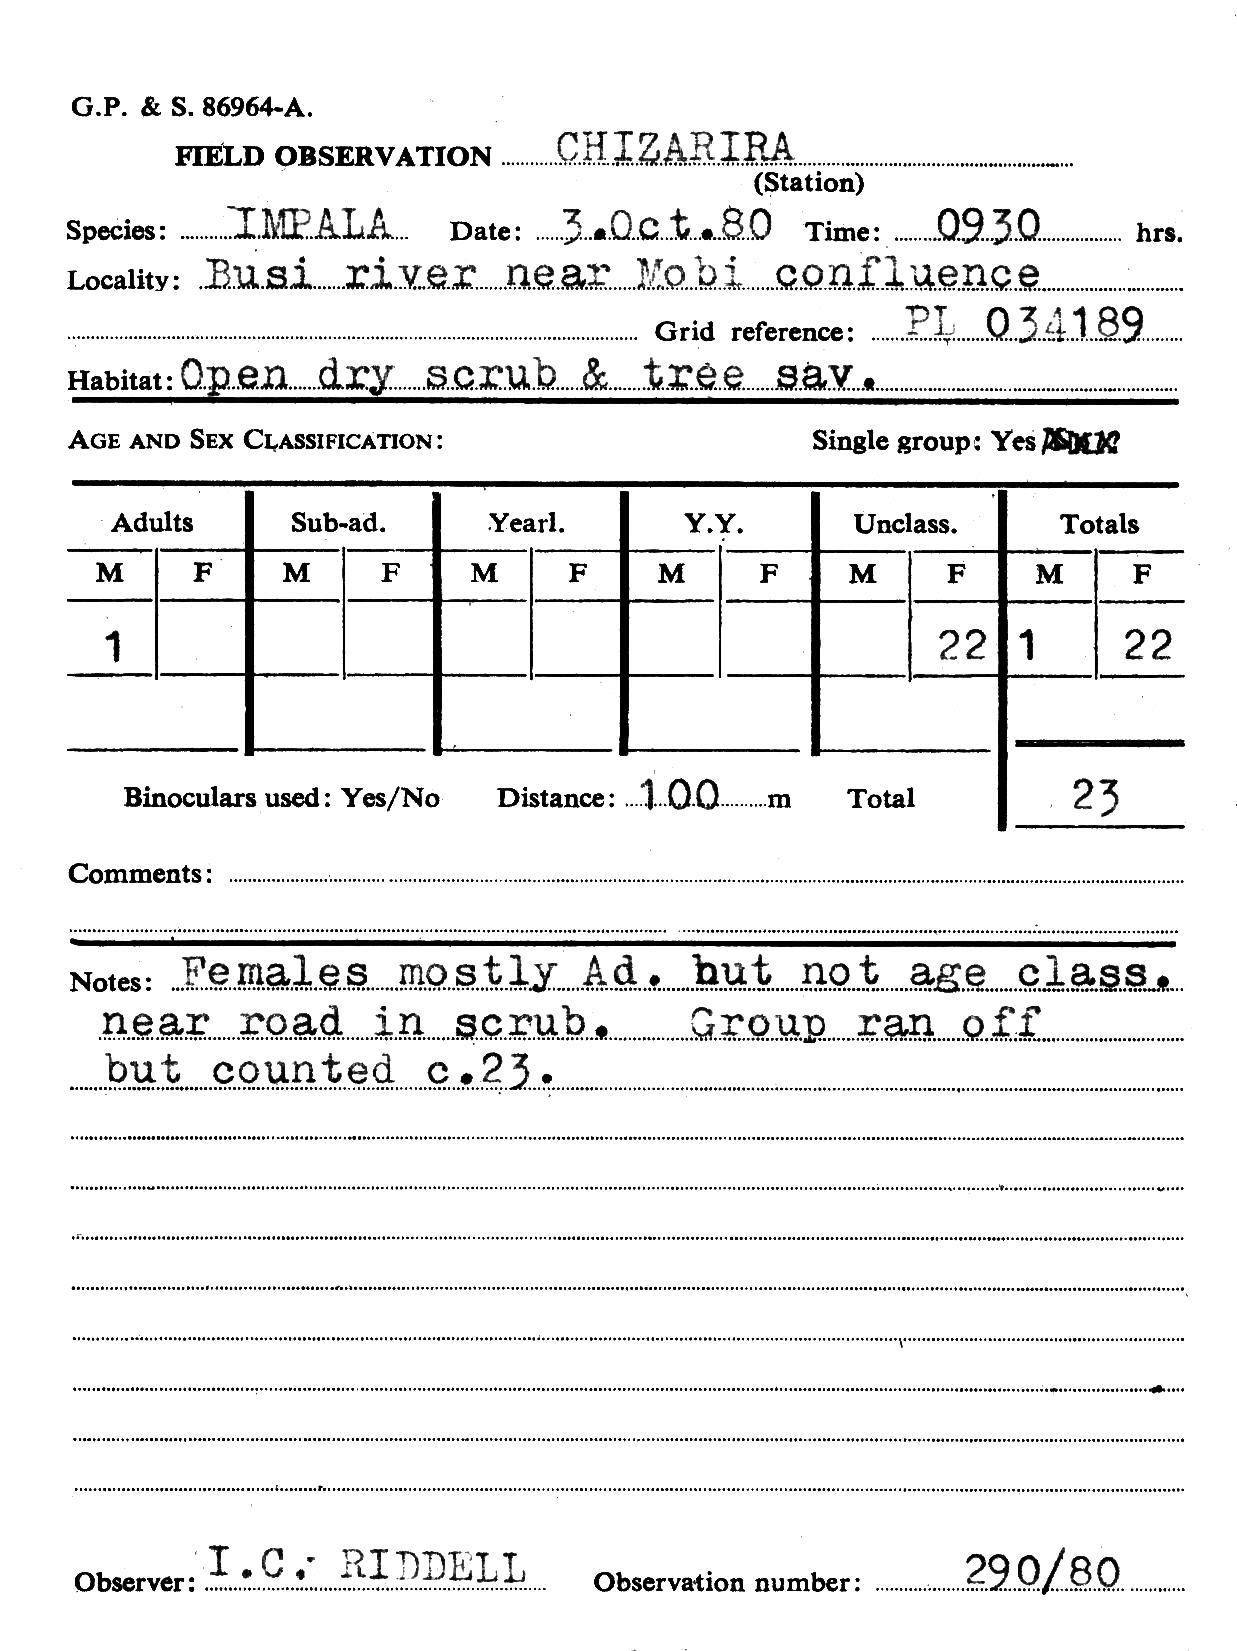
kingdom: Animalia
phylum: Chordata
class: Mammalia
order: Artiodactyla
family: Bovidae
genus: Aepyceros
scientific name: Aepyceros melampus
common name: Impala
